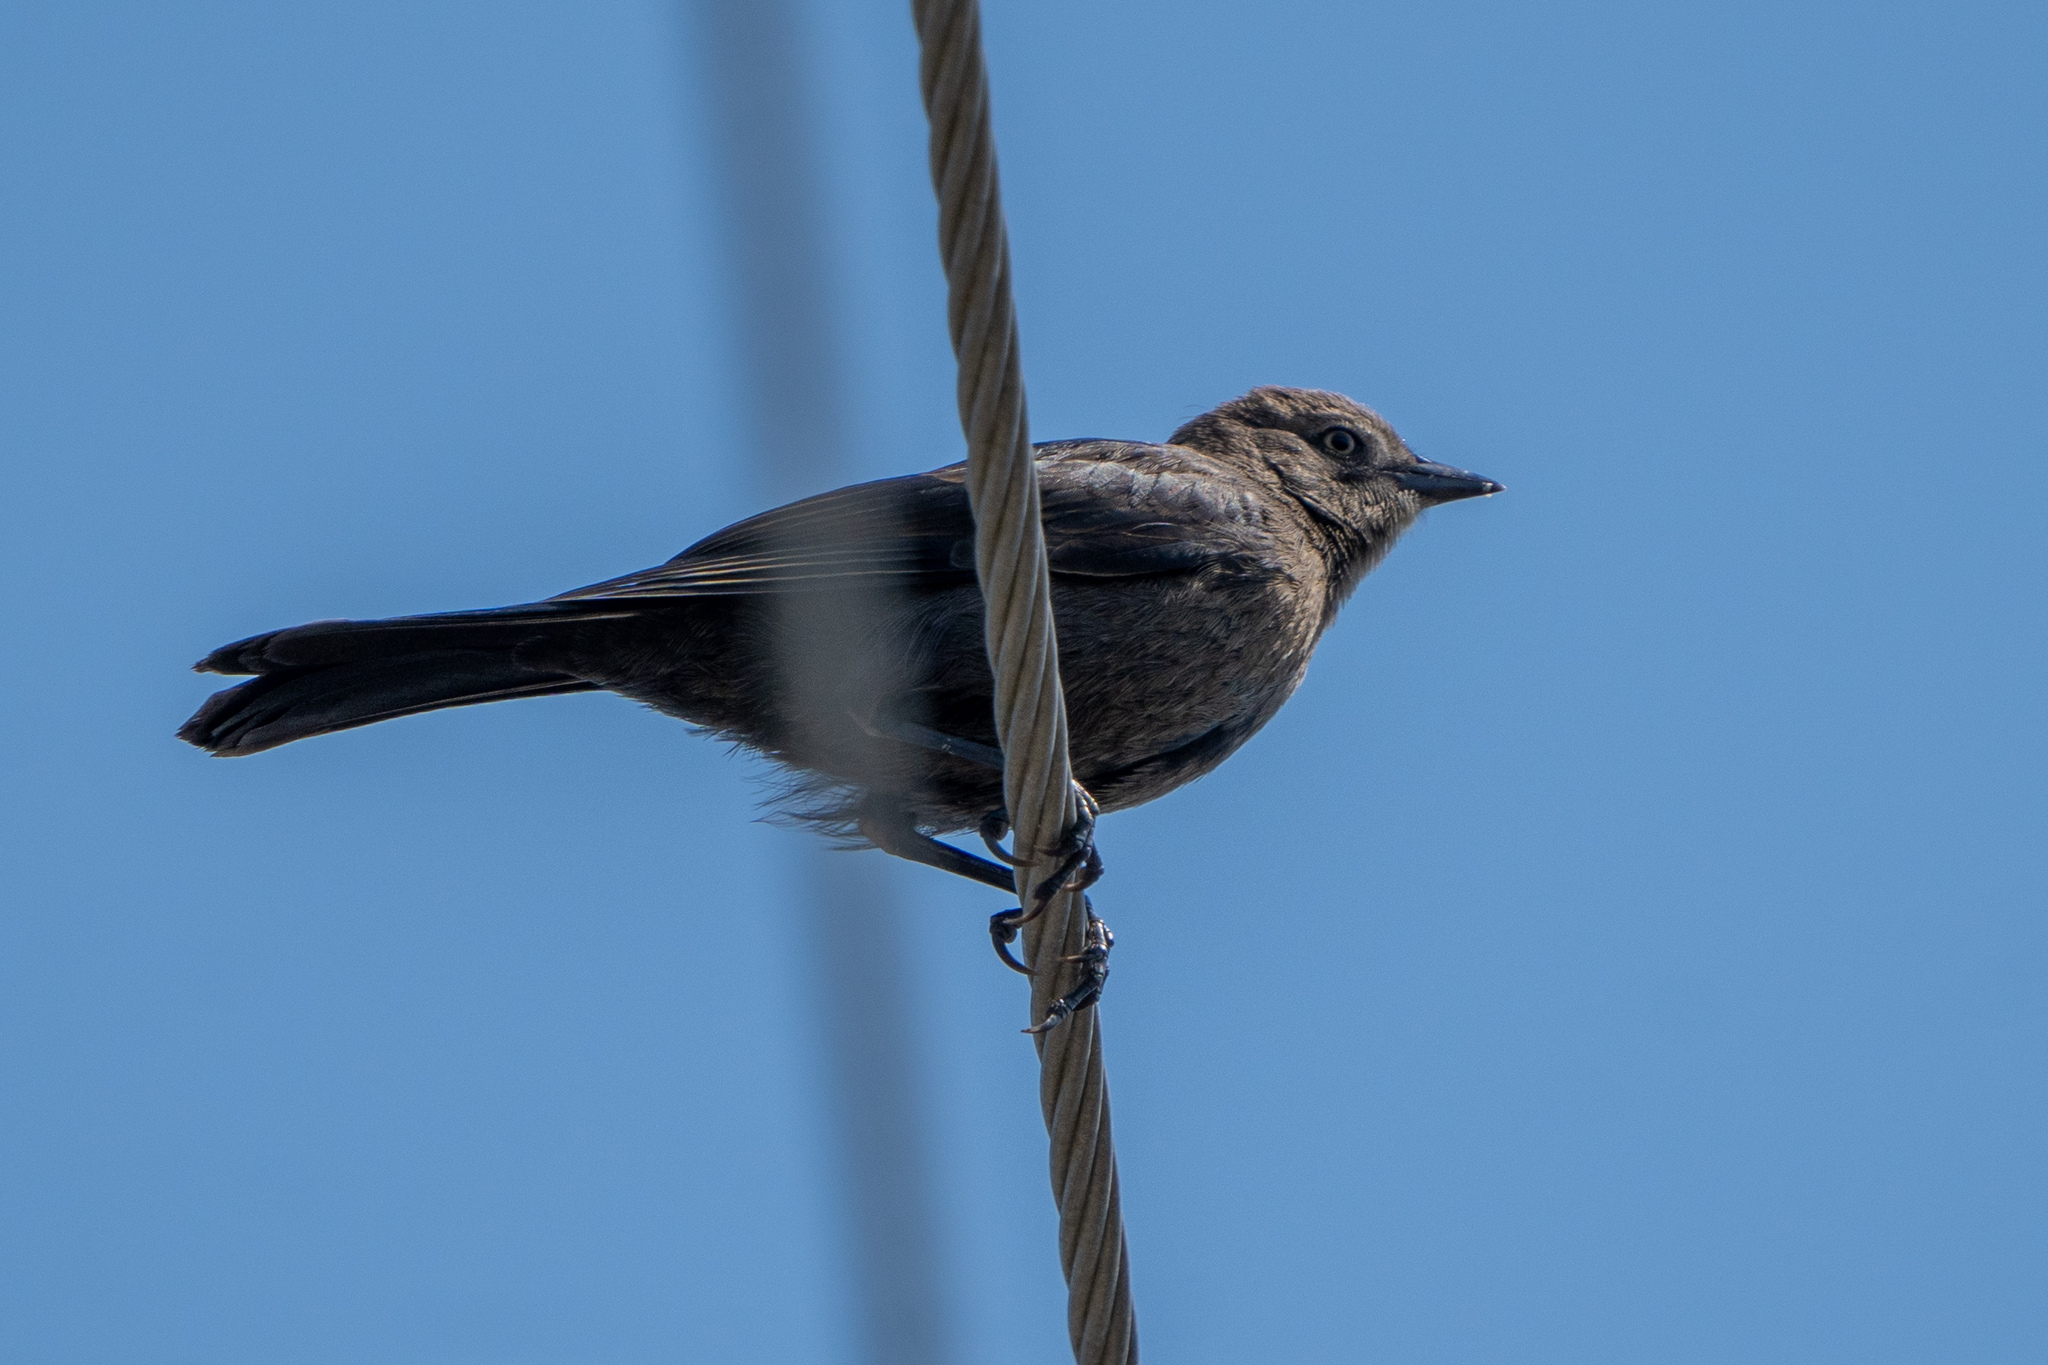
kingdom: Animalia
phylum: Chordata
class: Aves
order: Passeriformes
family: Icteridae
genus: Euphagus
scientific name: Euphagus cyanocephalus
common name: Brewer's blackbird
